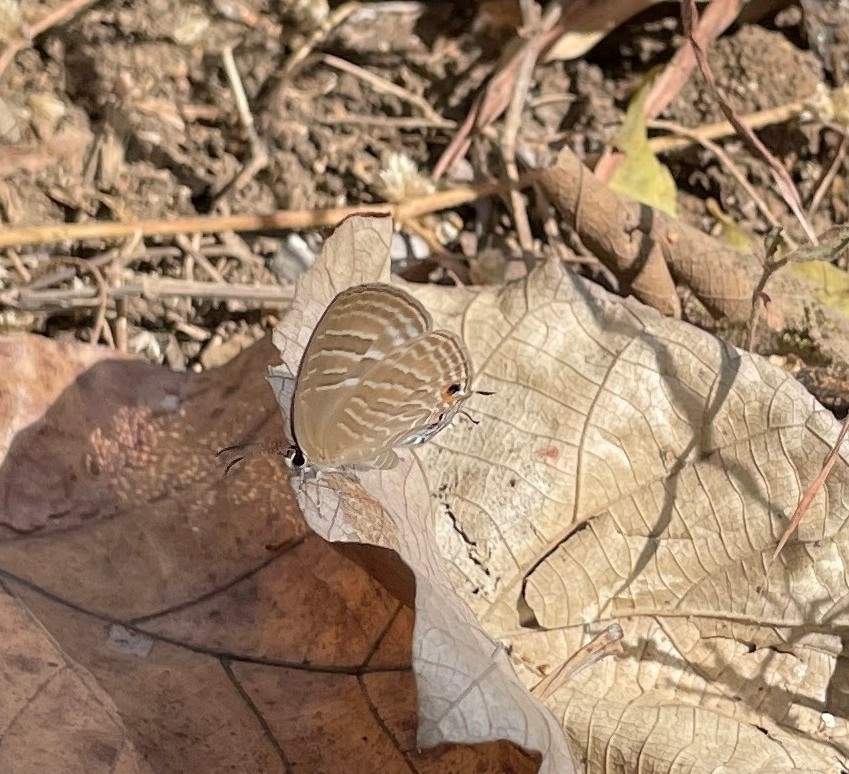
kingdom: Animalia
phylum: Arthropoda
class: Insecta
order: Lepidoptera
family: Lycaenidae
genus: Jamides
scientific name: Jamides celeno
